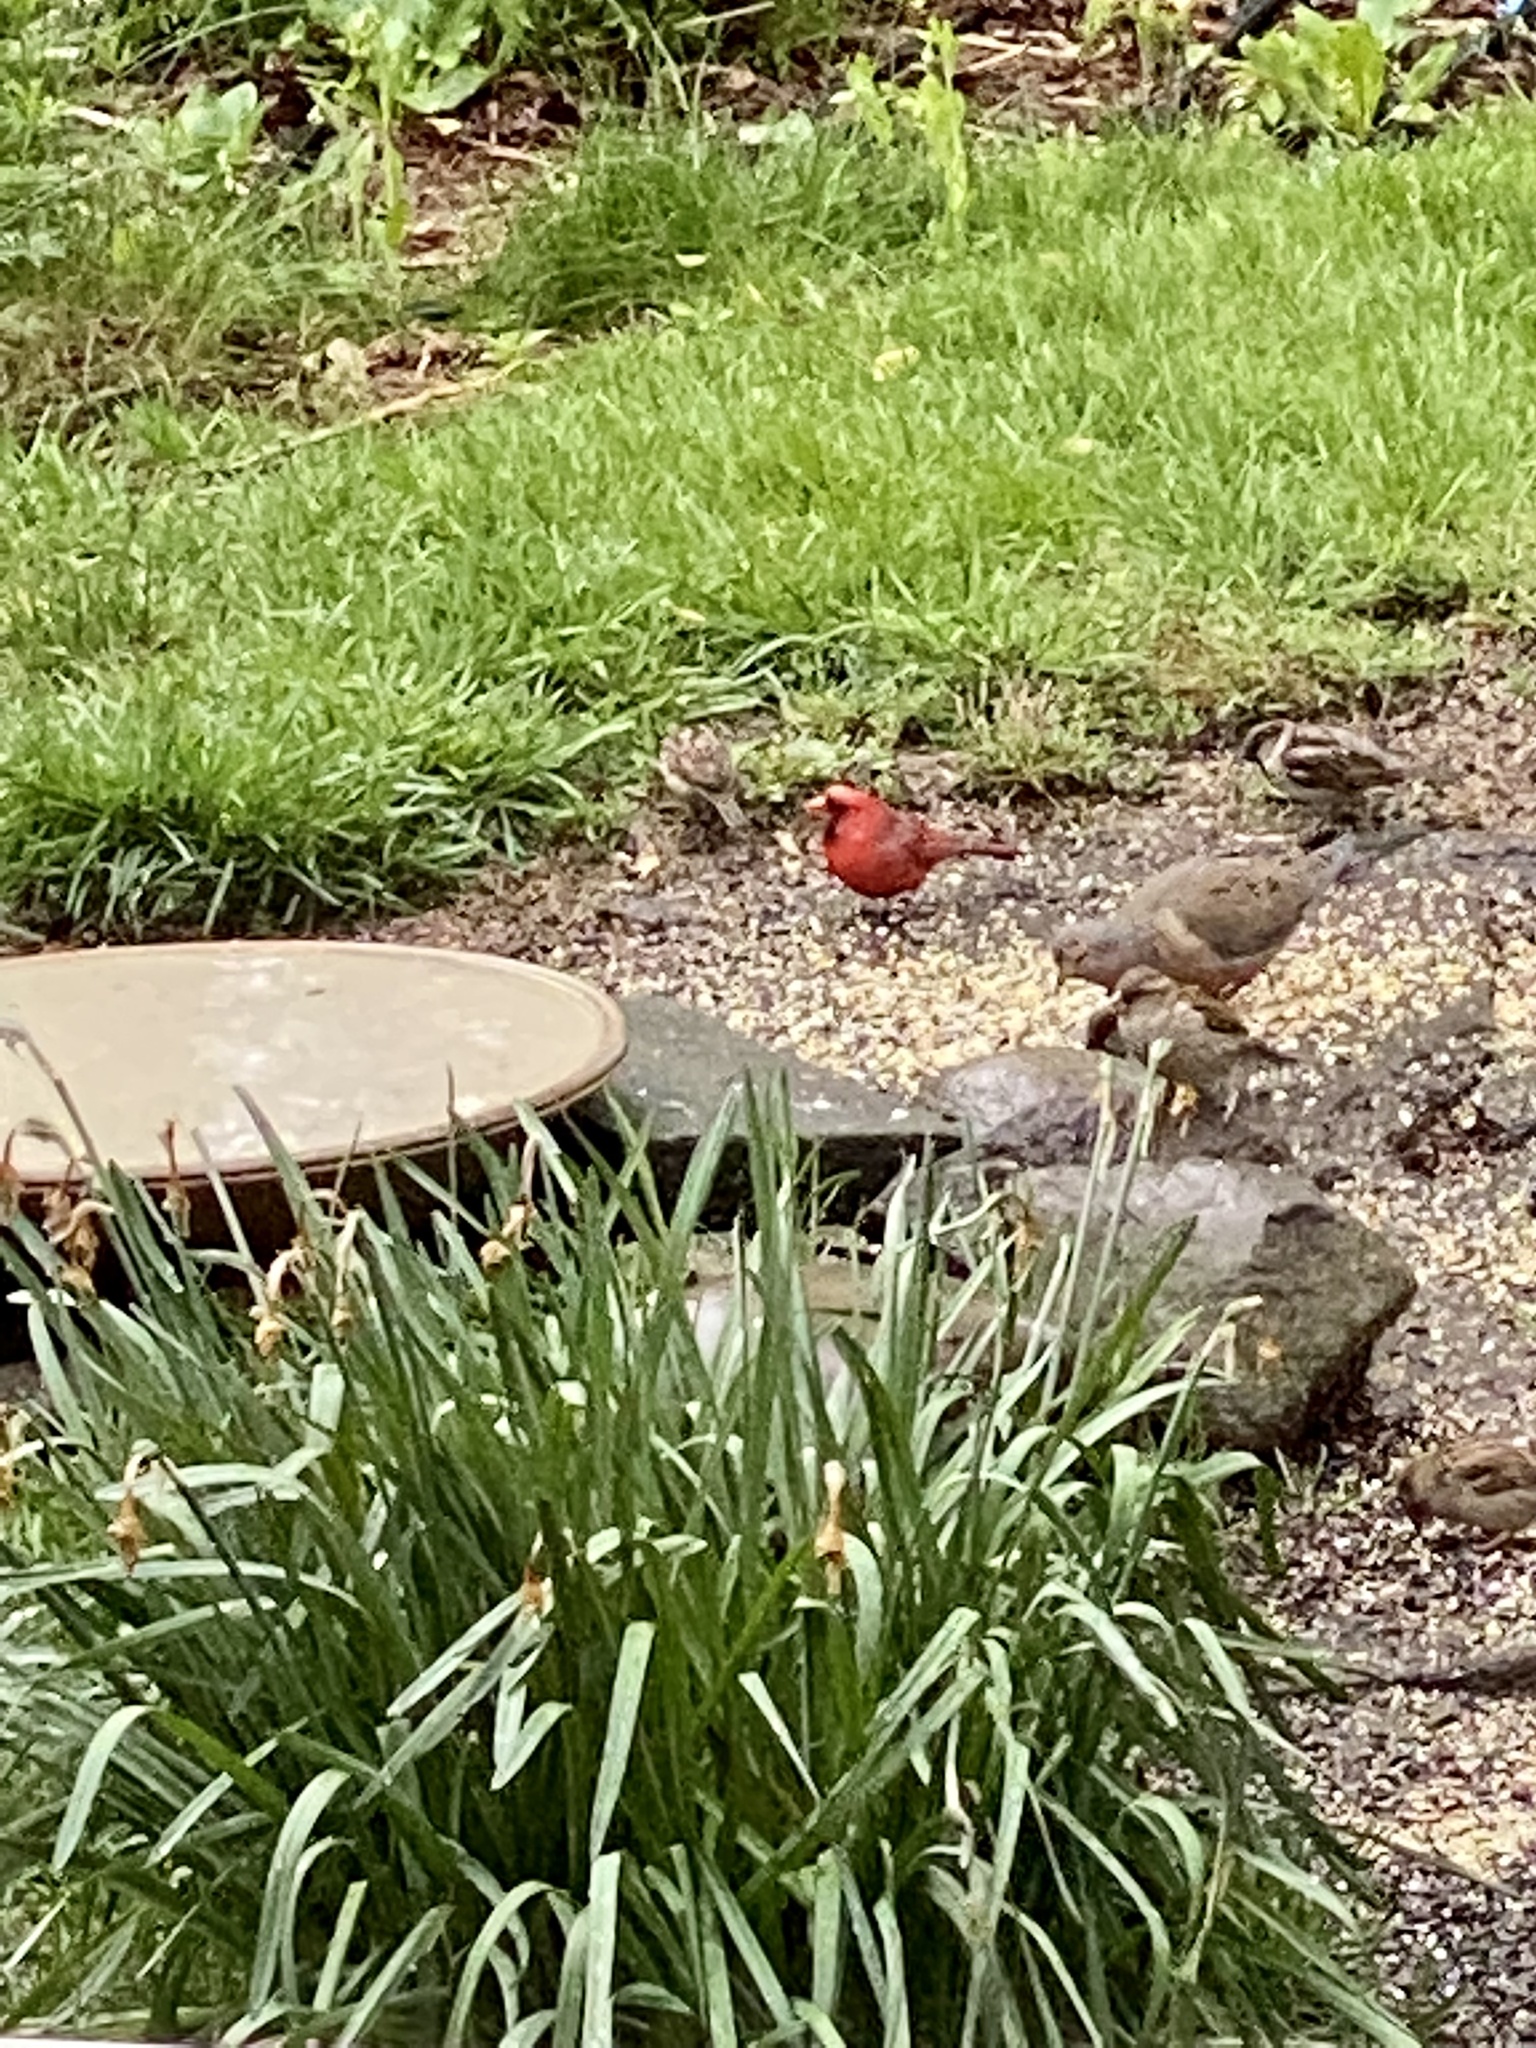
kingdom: Animalia
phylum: Chordata
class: Aves
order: Passeriformes
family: Cardinalidae
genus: Cardinalis
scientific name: Cardinalis cardinalis
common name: Northern cardinal
